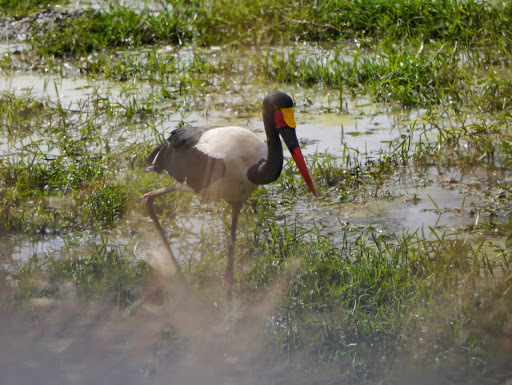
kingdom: Animalia
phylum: Chordata
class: Aves
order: Ciconiiformes
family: Ciconiidae
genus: Ephippiorhynchus
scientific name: Ephippiorhynchus senegalensis
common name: Saddle-billed stork
